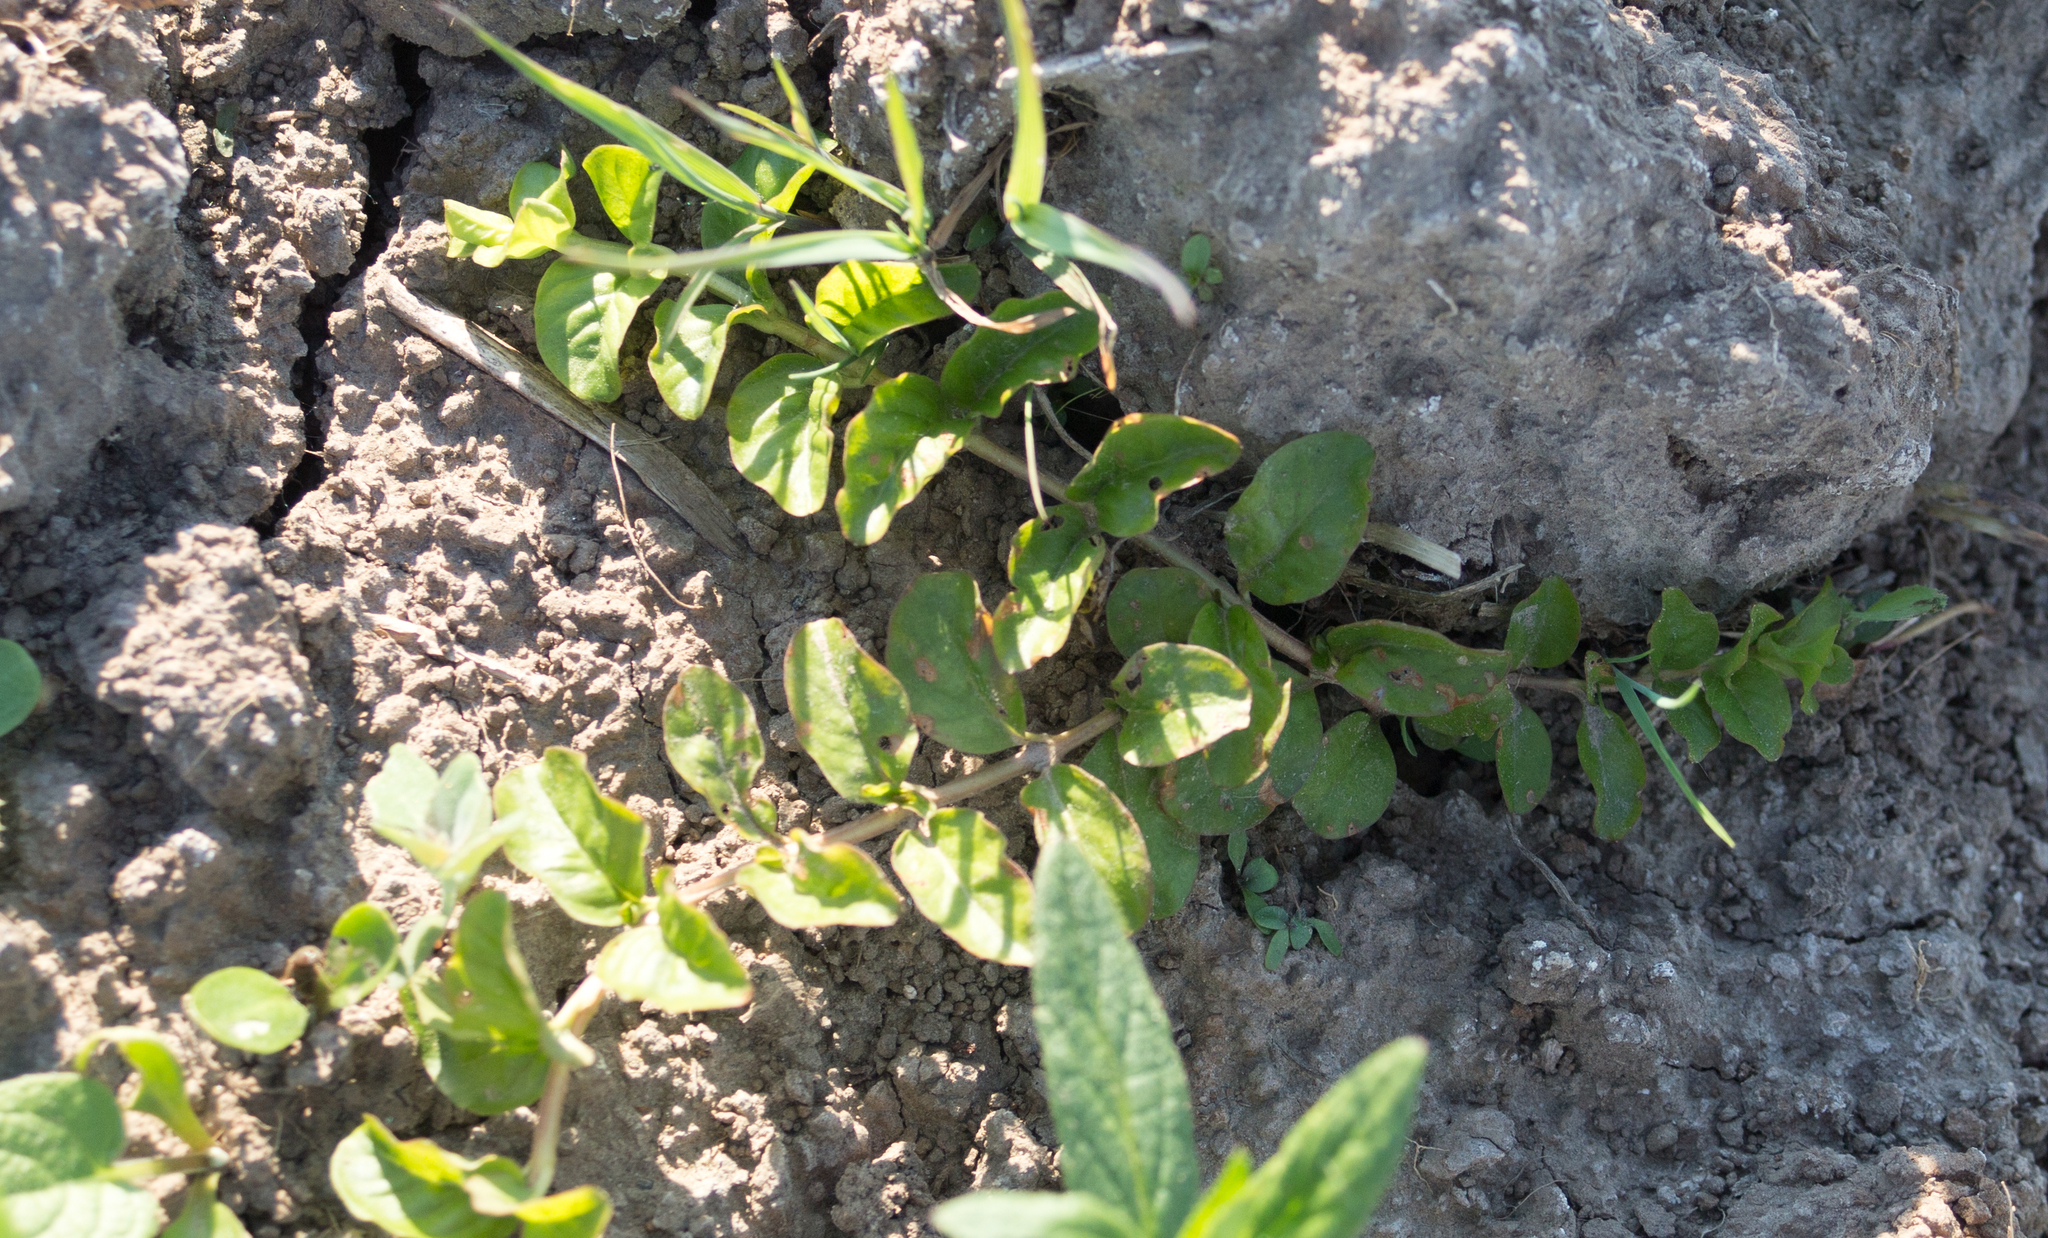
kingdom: Plantae
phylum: Tracheophyta
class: Magnoliopsida
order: Ericales
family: Primulaceae
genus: Lysimachia
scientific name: Lysimachia nummularia
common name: Moneywort
